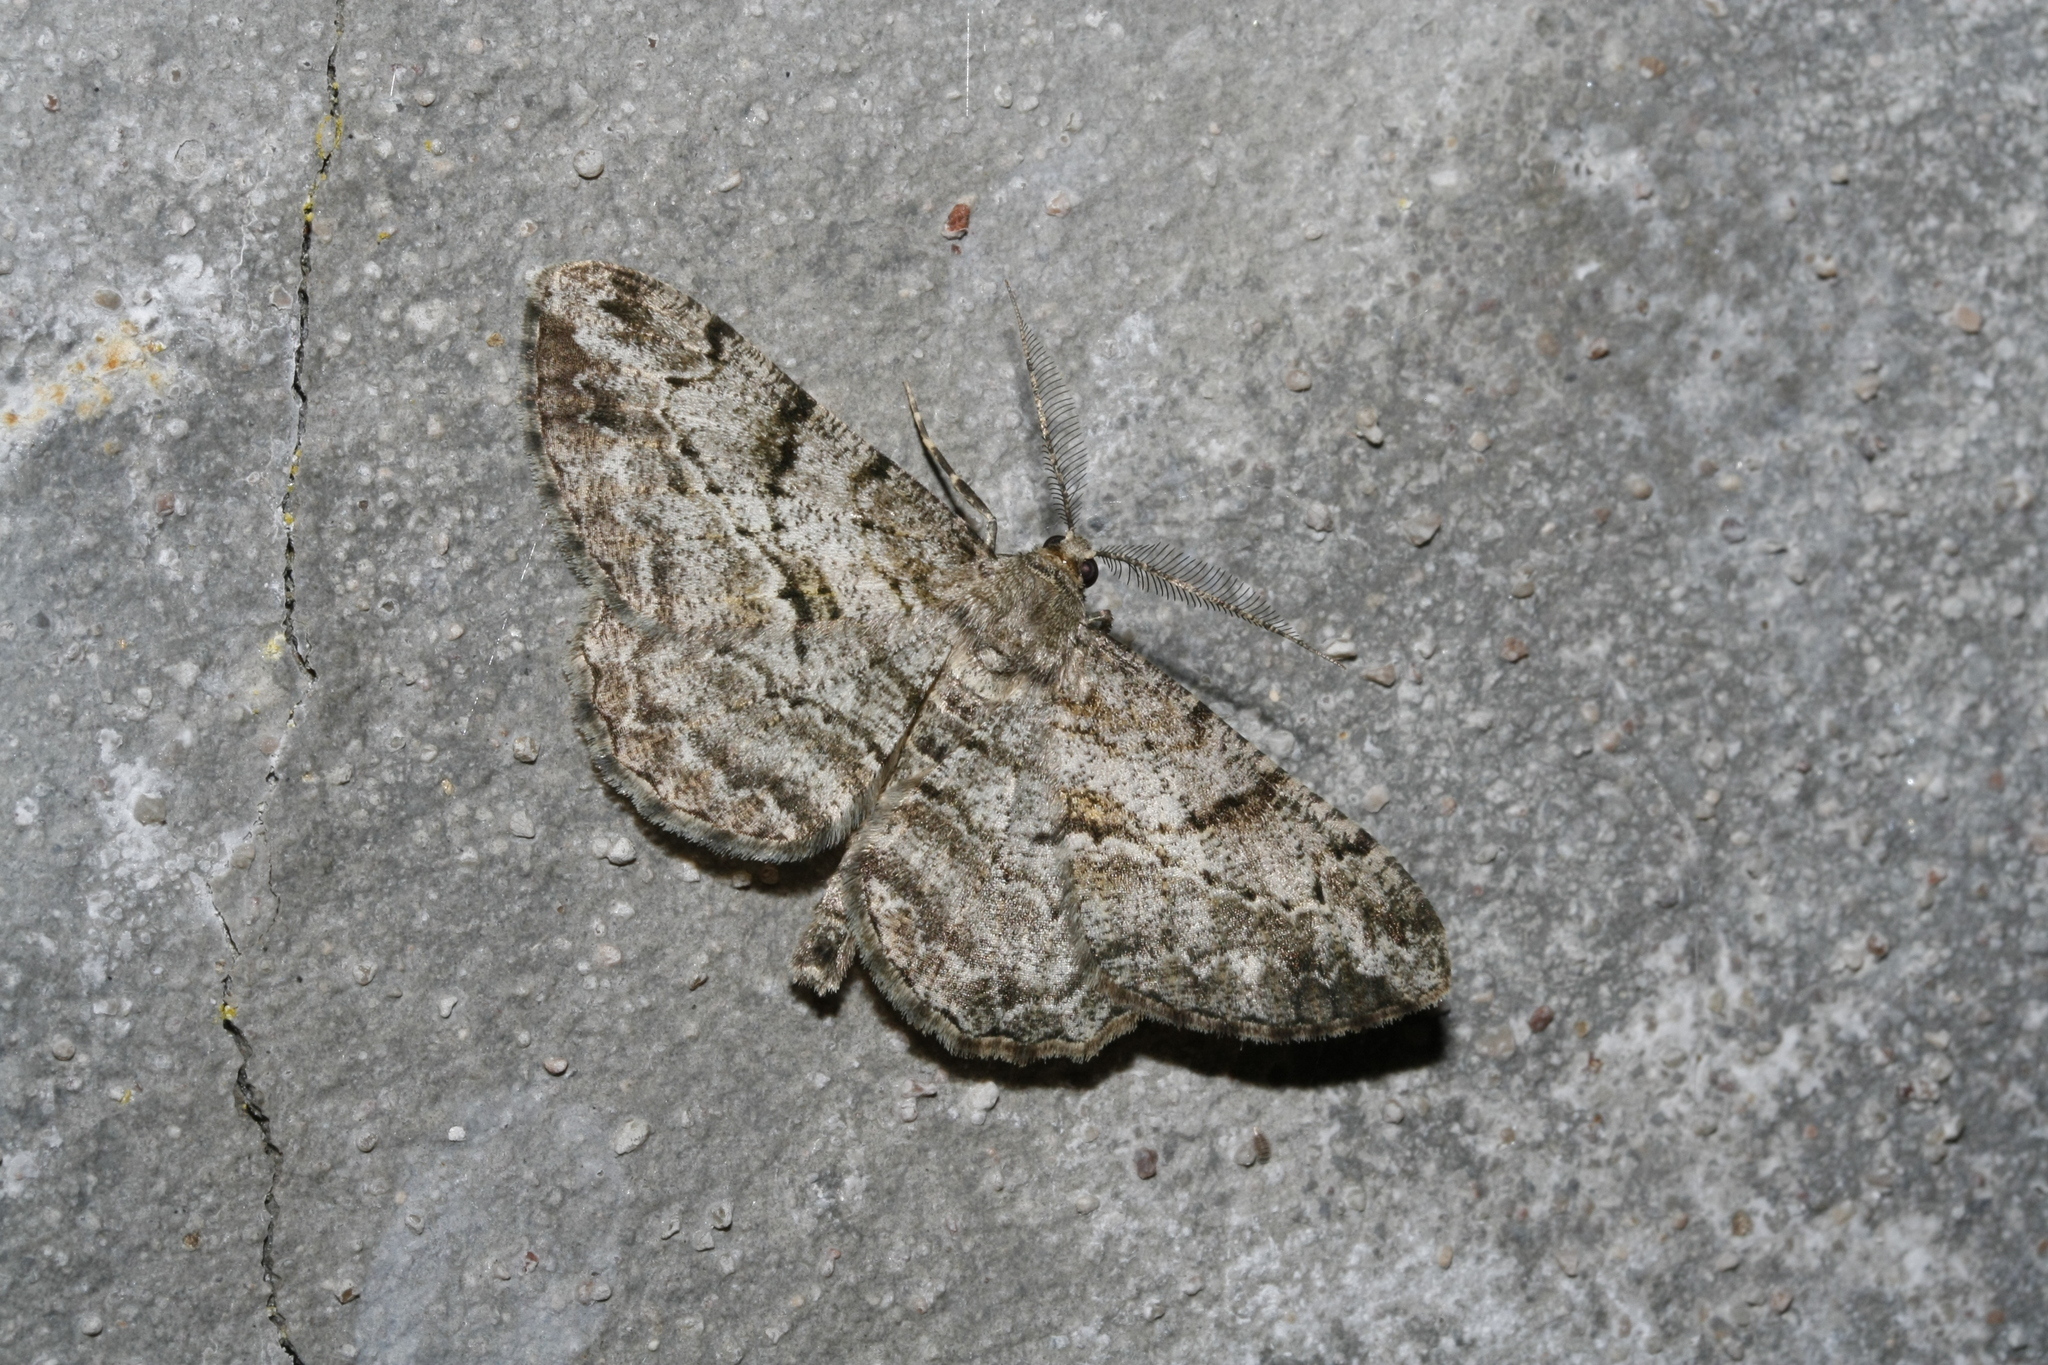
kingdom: Animalia
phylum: Arthropoda
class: Insecta
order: Lepidoptera
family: Geometridae
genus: Peribatodes
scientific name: Peribatodes rhomboidaria
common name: Willow beauty
